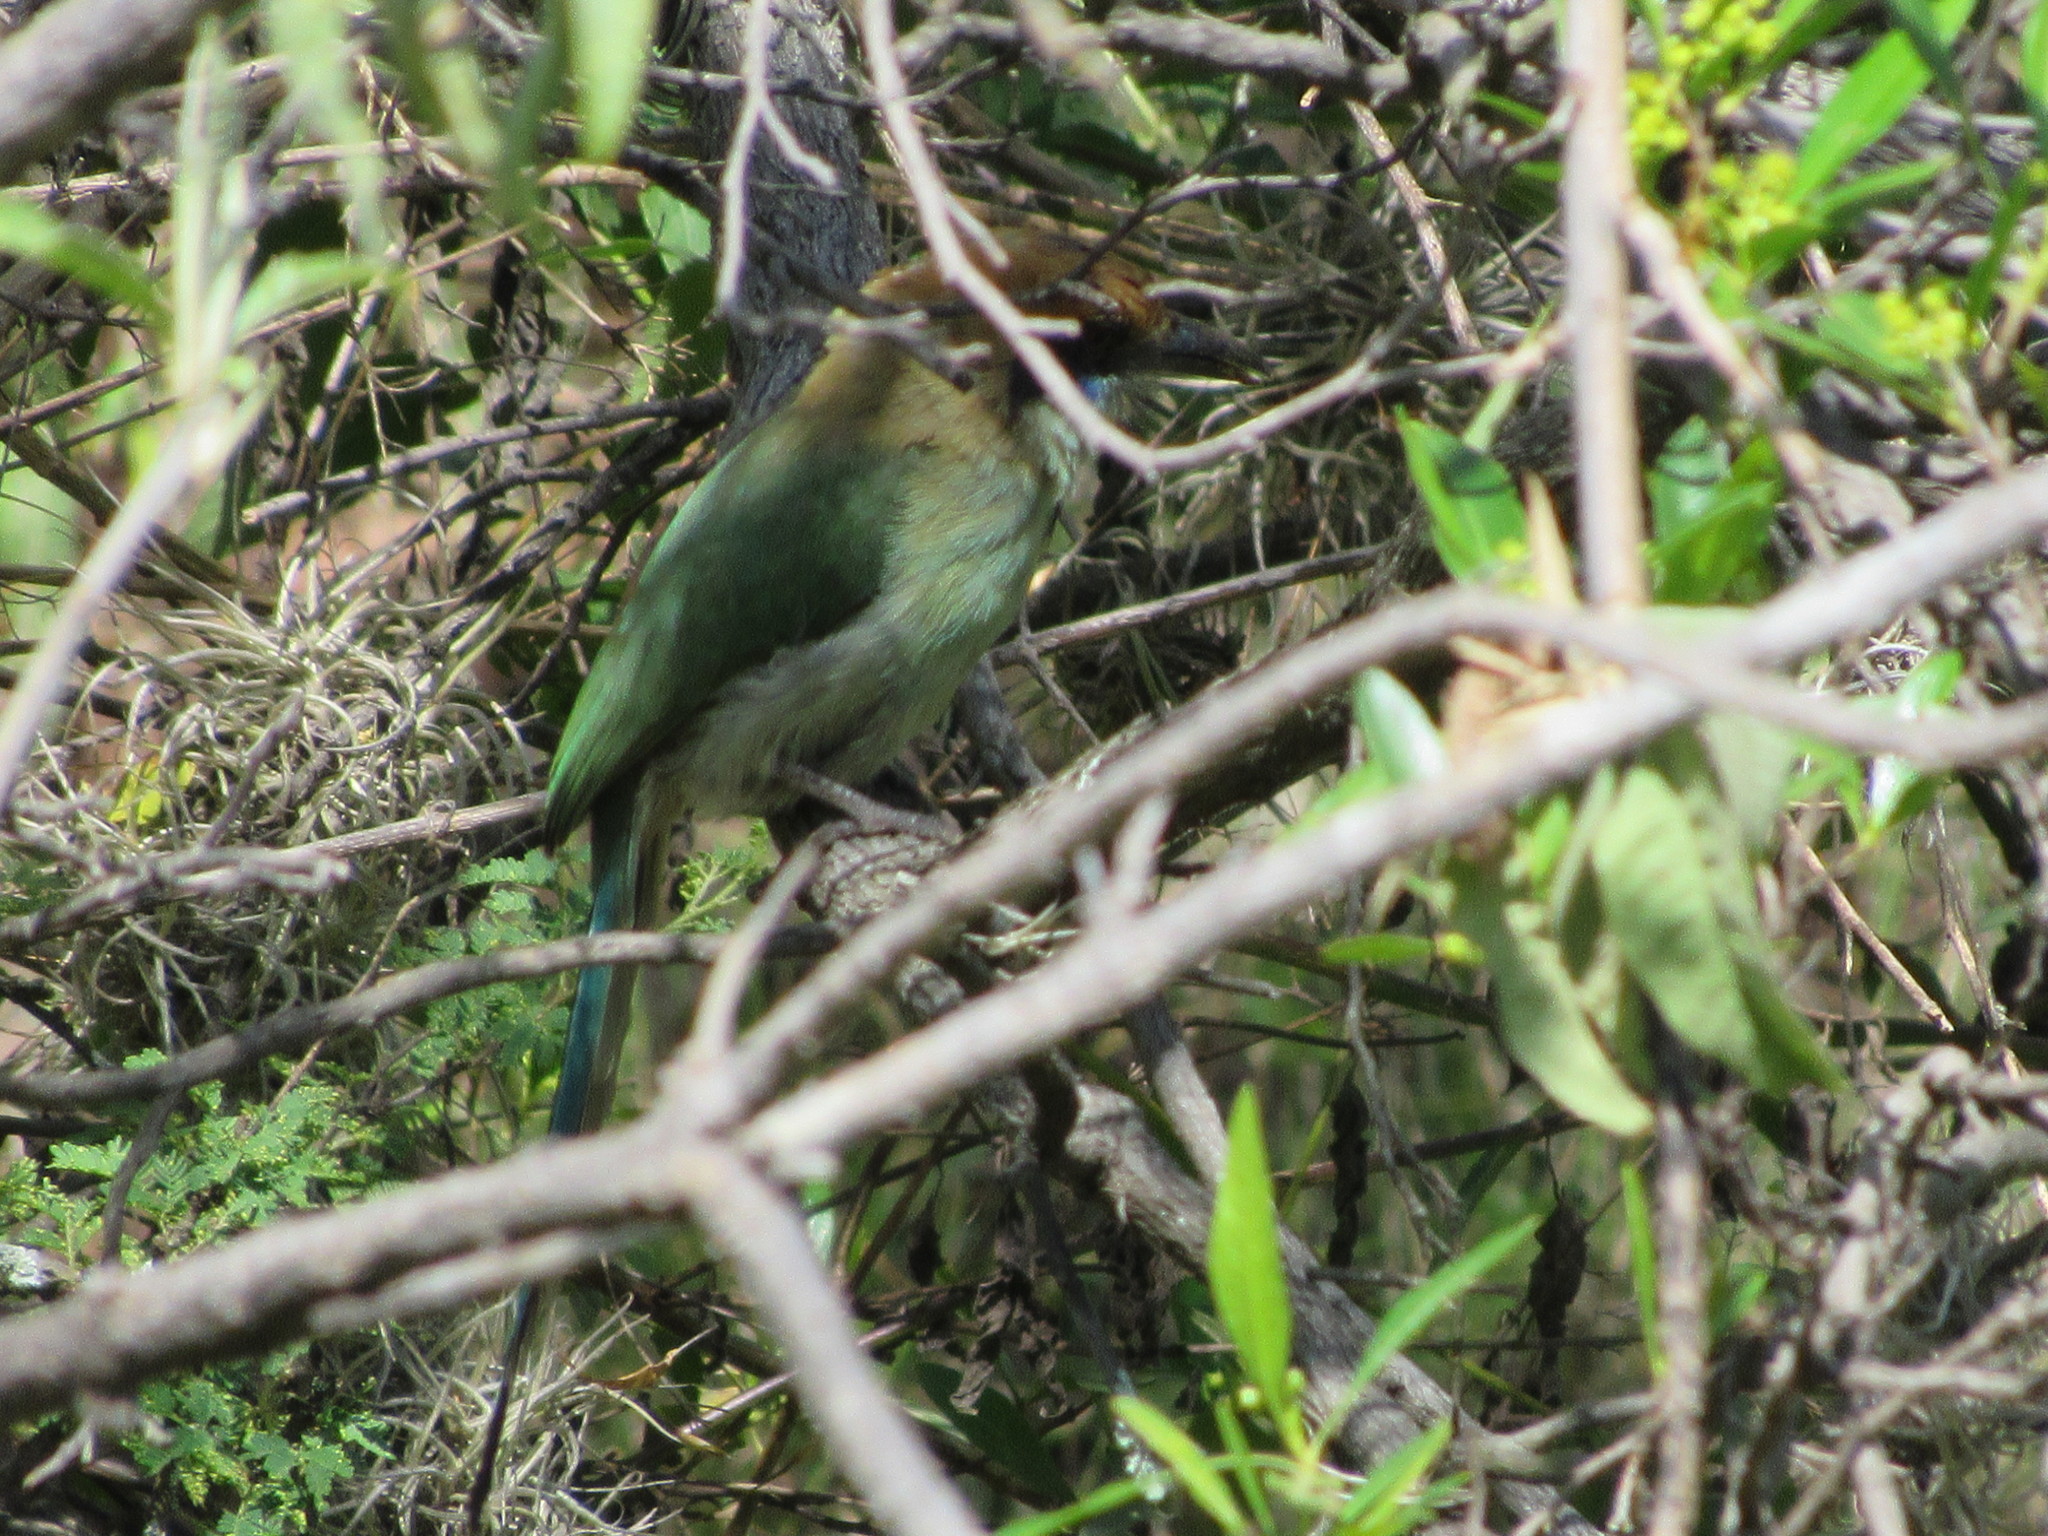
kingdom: Animalia
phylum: Chordata
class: Aves
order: Coraciiformes
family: Momotidae
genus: Momotus
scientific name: Momotus mexicanus
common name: Russet-crowned motmot
